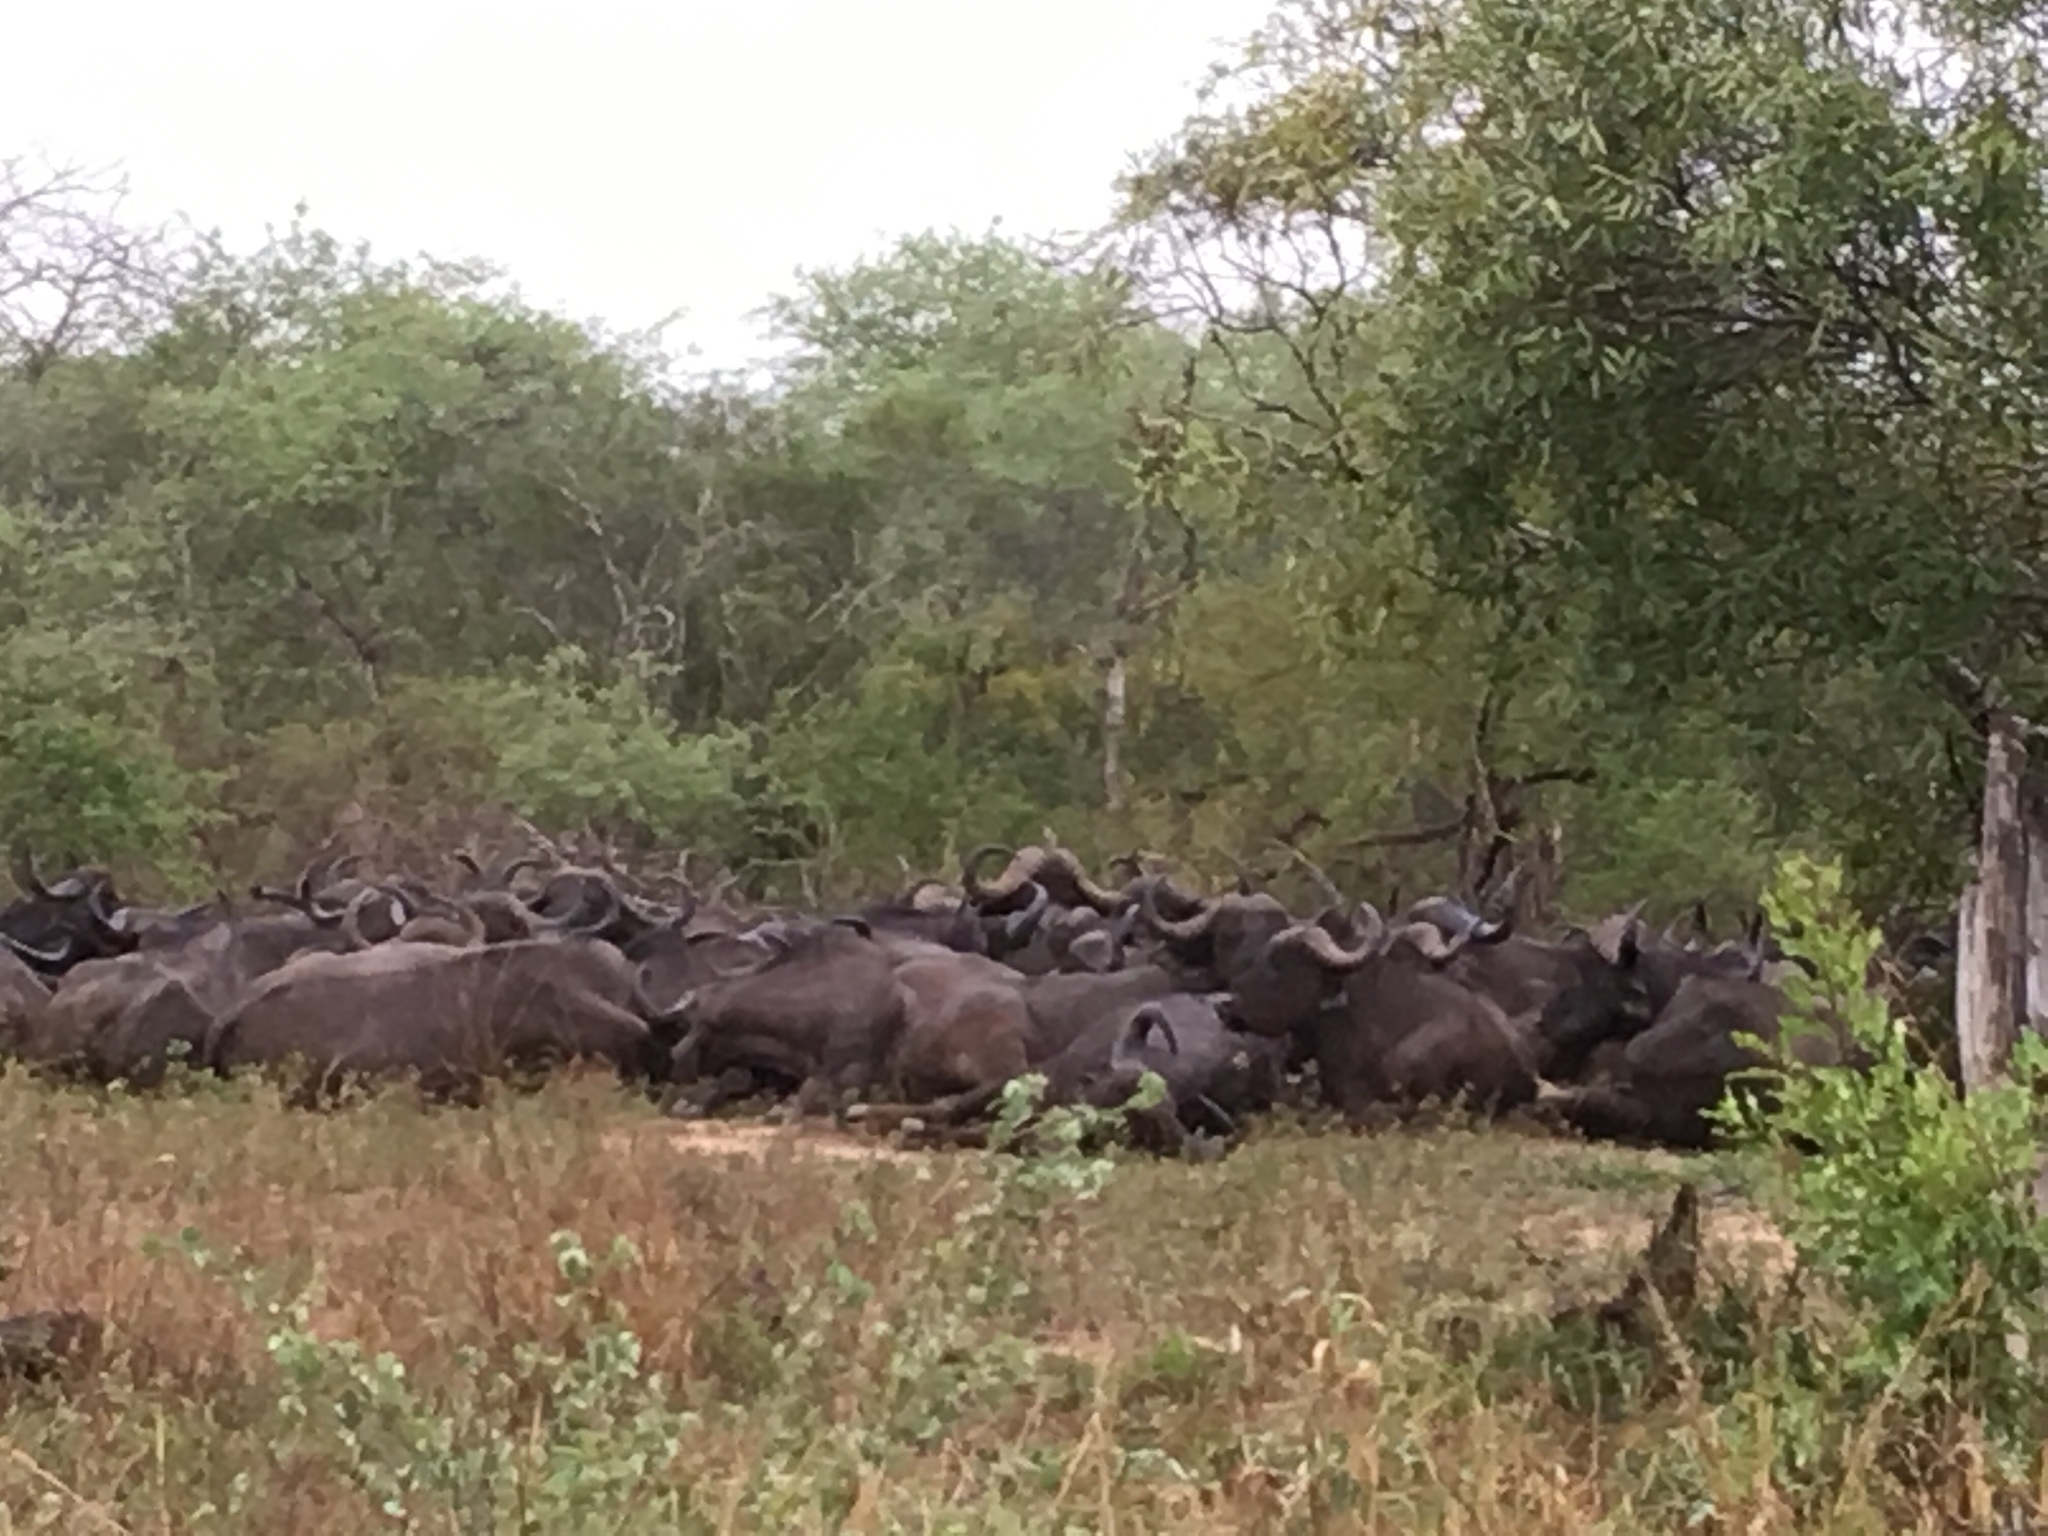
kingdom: Animalia
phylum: Chordata
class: Mammalia
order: Artiodactyla
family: Bovidae
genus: Syncerus
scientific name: Syncerus caffer
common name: African buffalo
